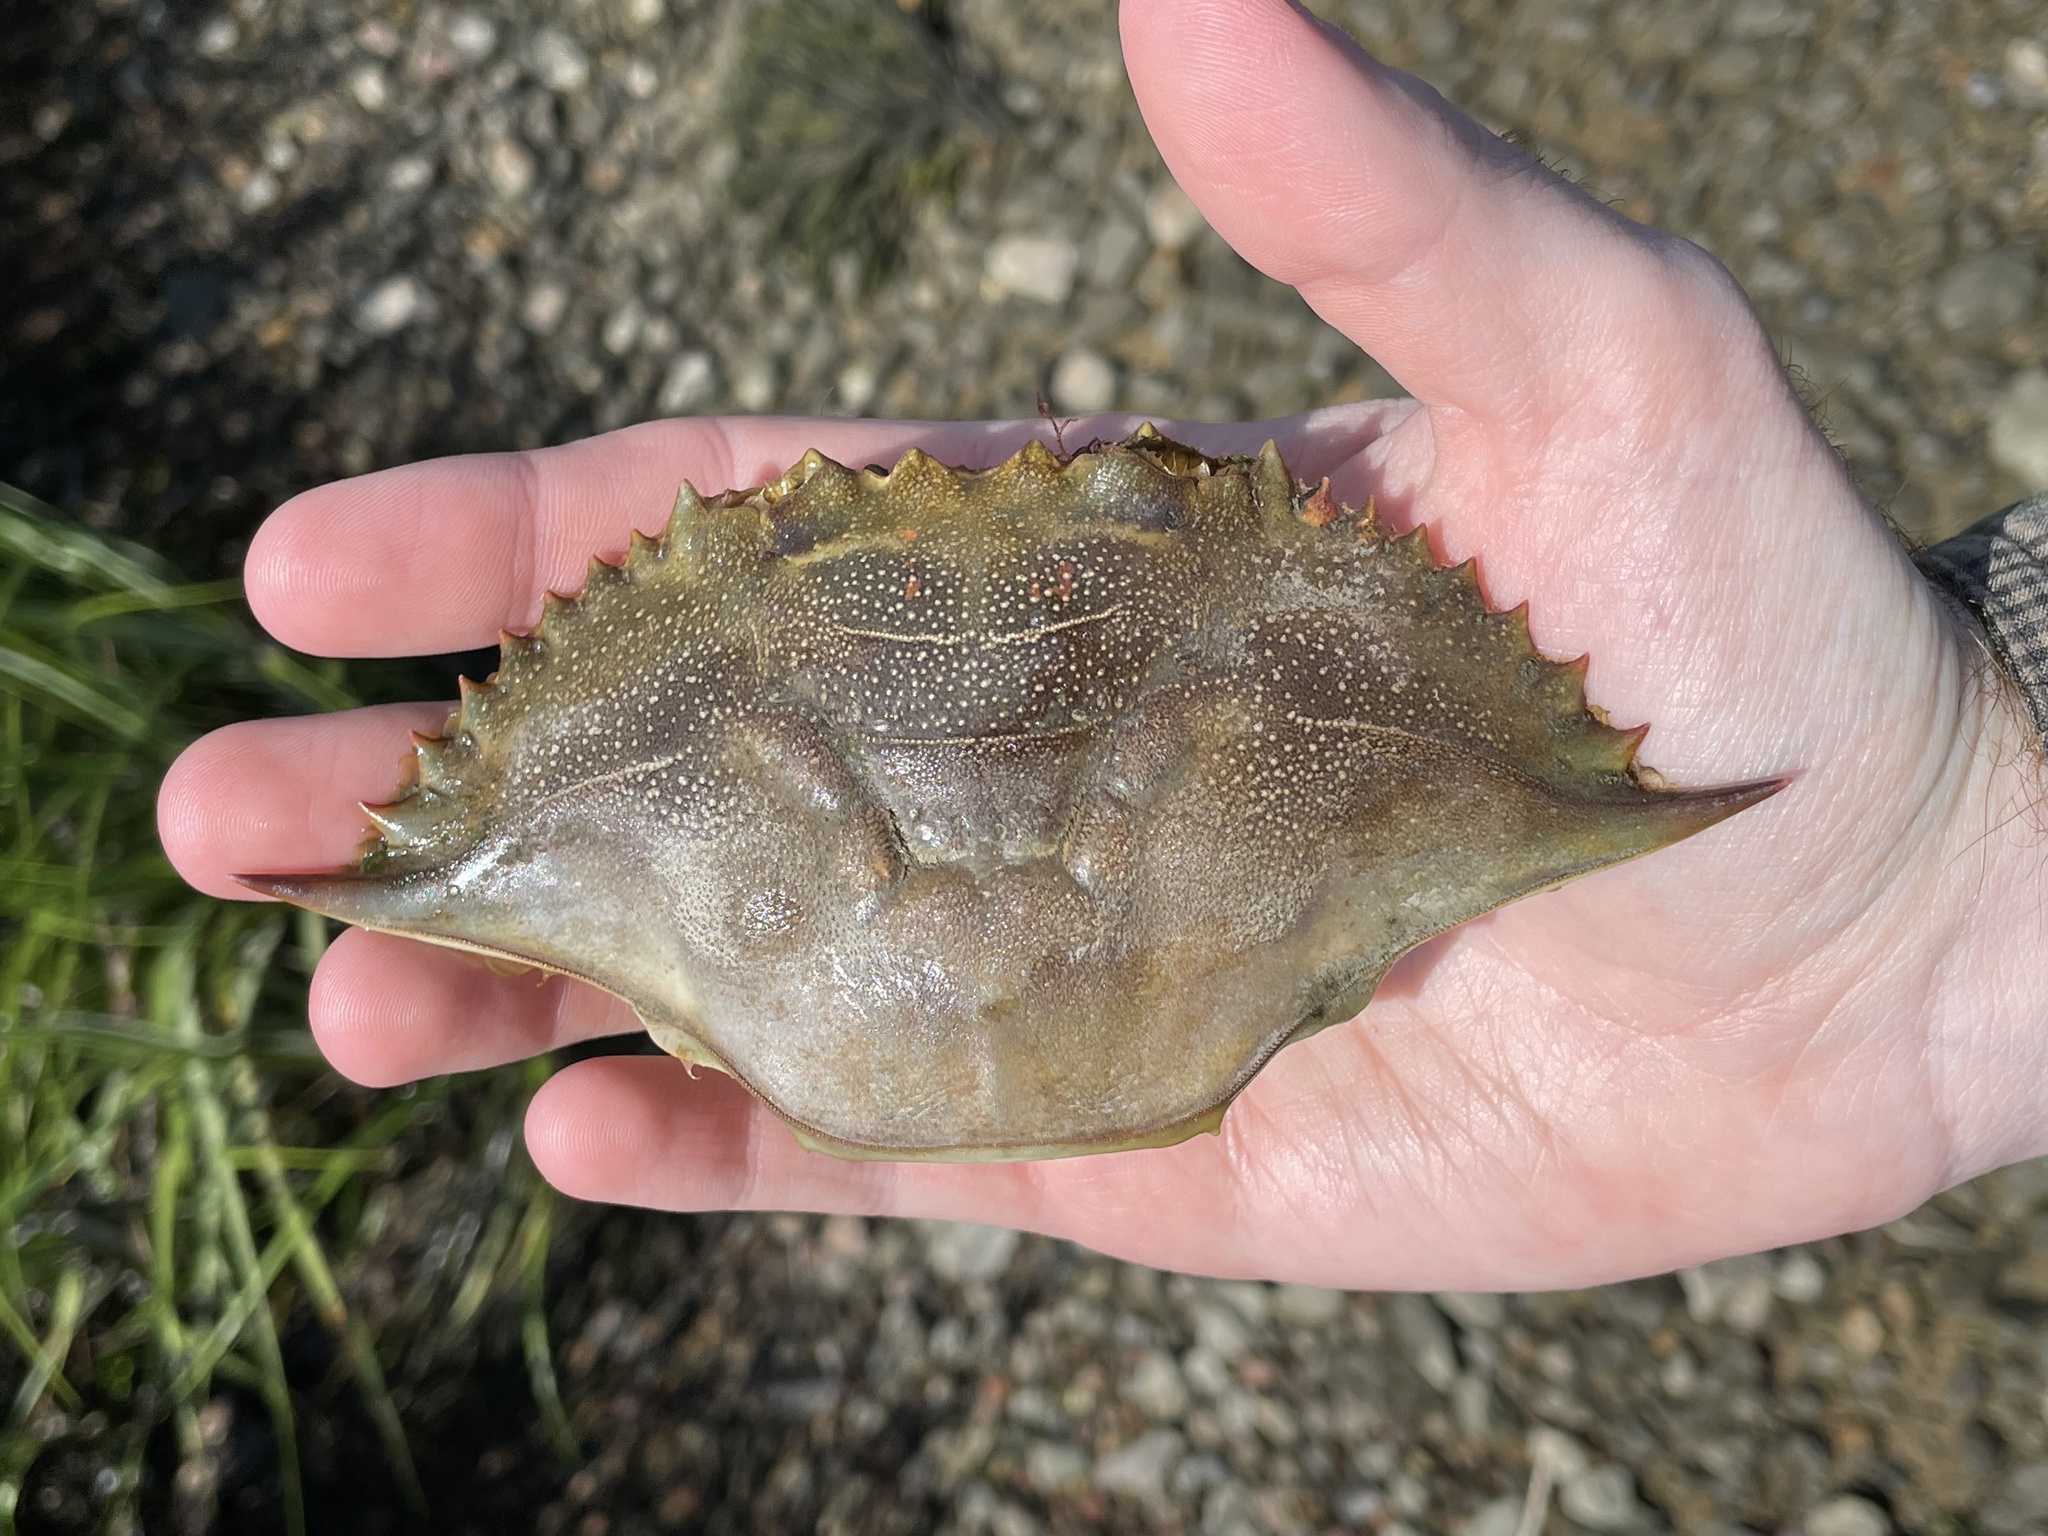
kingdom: Animalia
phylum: Arthropoda
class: Malacostraca
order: Decapoda
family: Portunidae
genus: Callinectes
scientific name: Callinectes sapidus
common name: Blue crab
